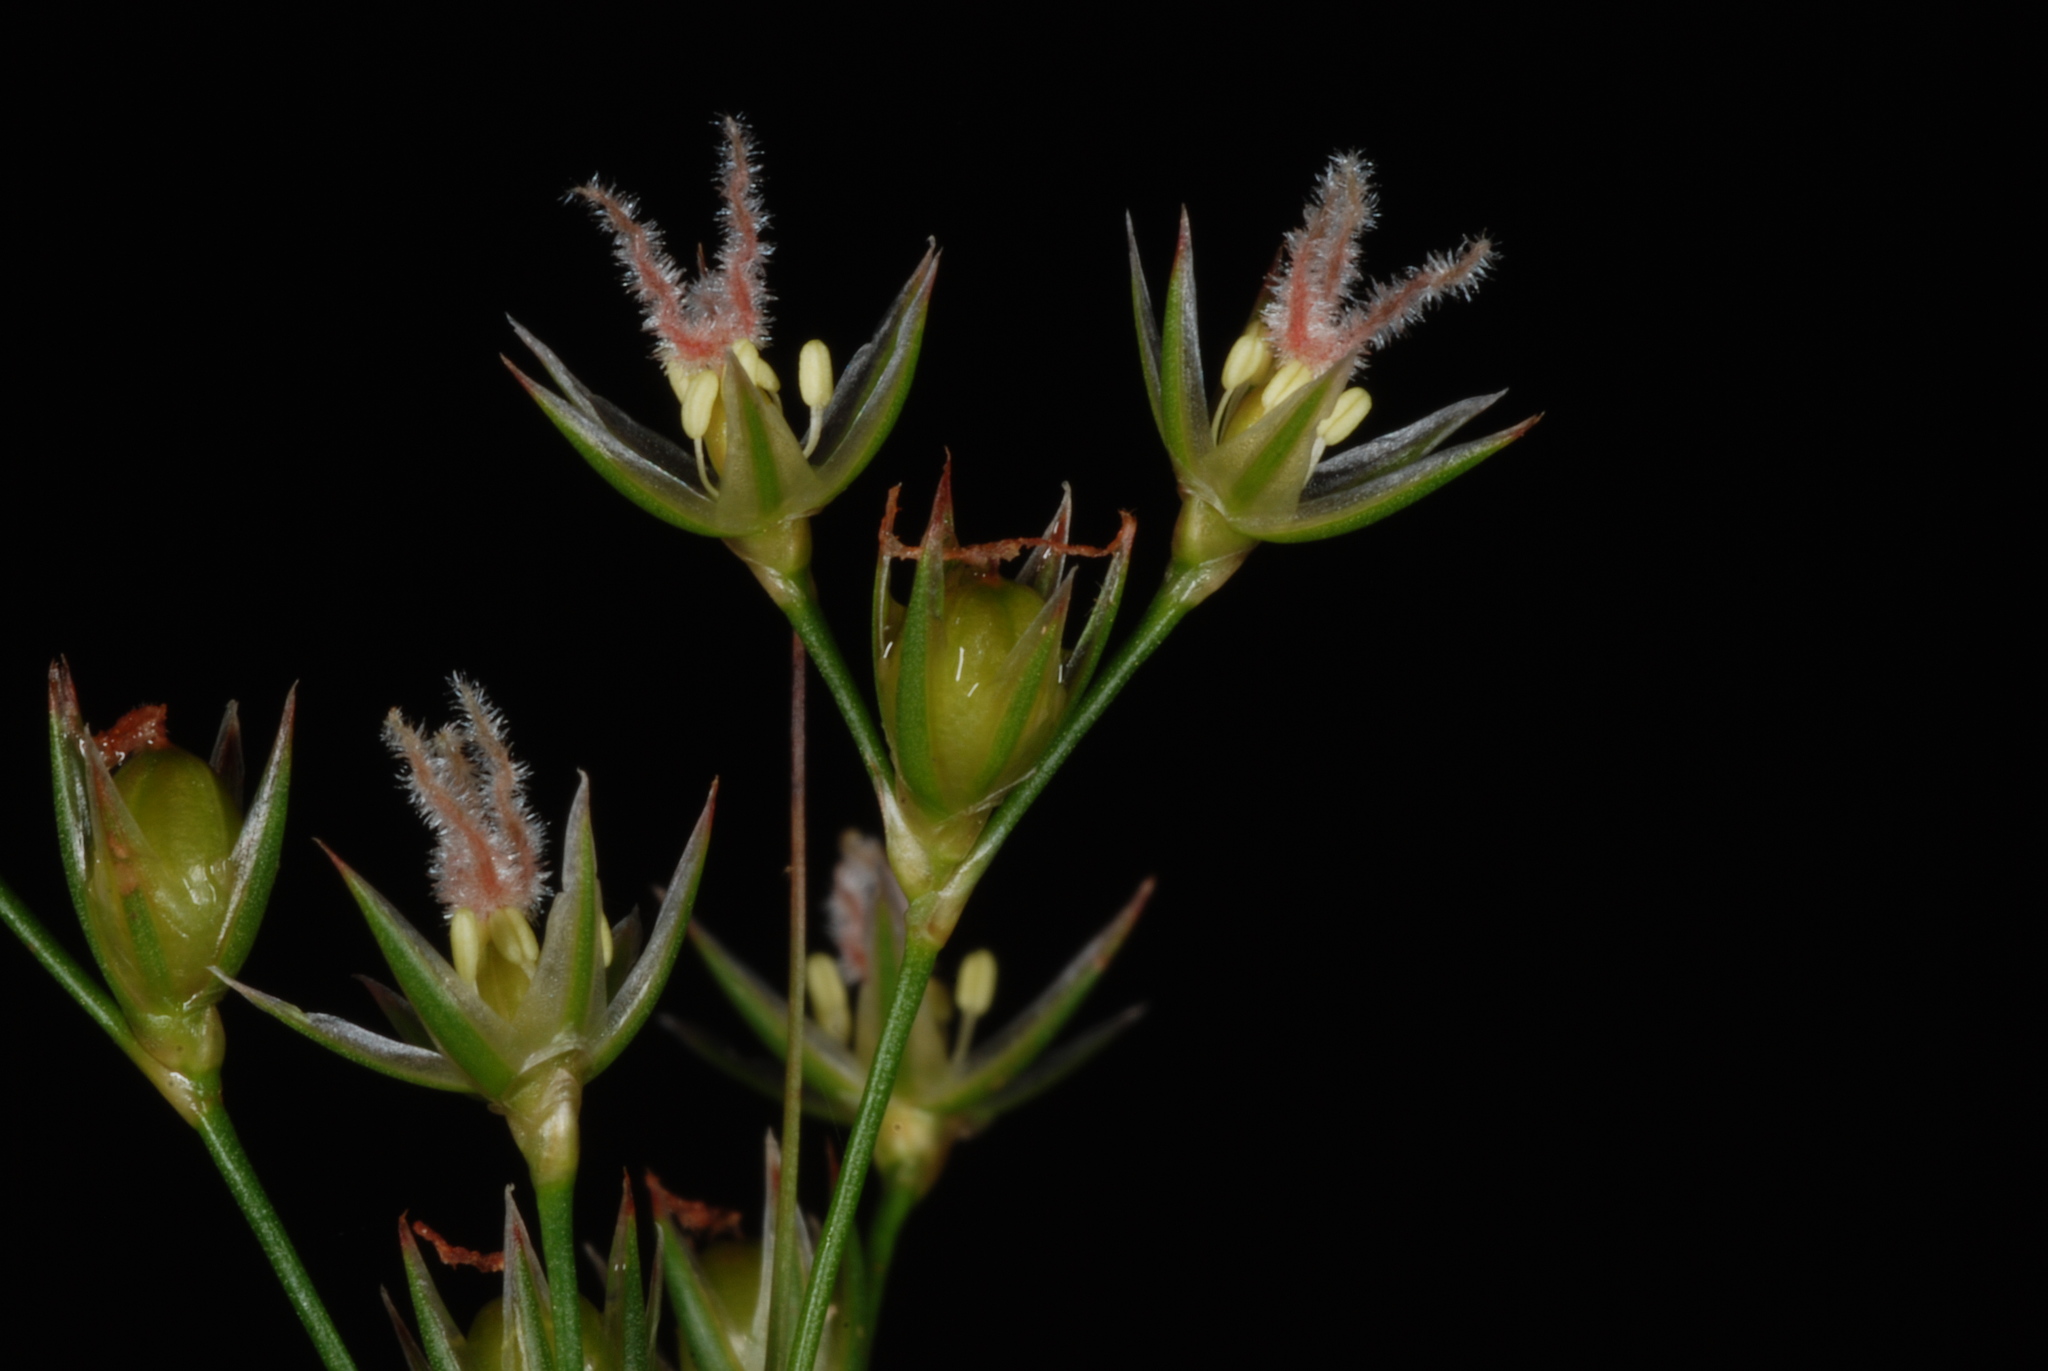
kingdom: Plantae
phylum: Tracheophyta
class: Liliopsida
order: Poales
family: Juncaceae
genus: Juncus
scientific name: Juncus coriaceus
